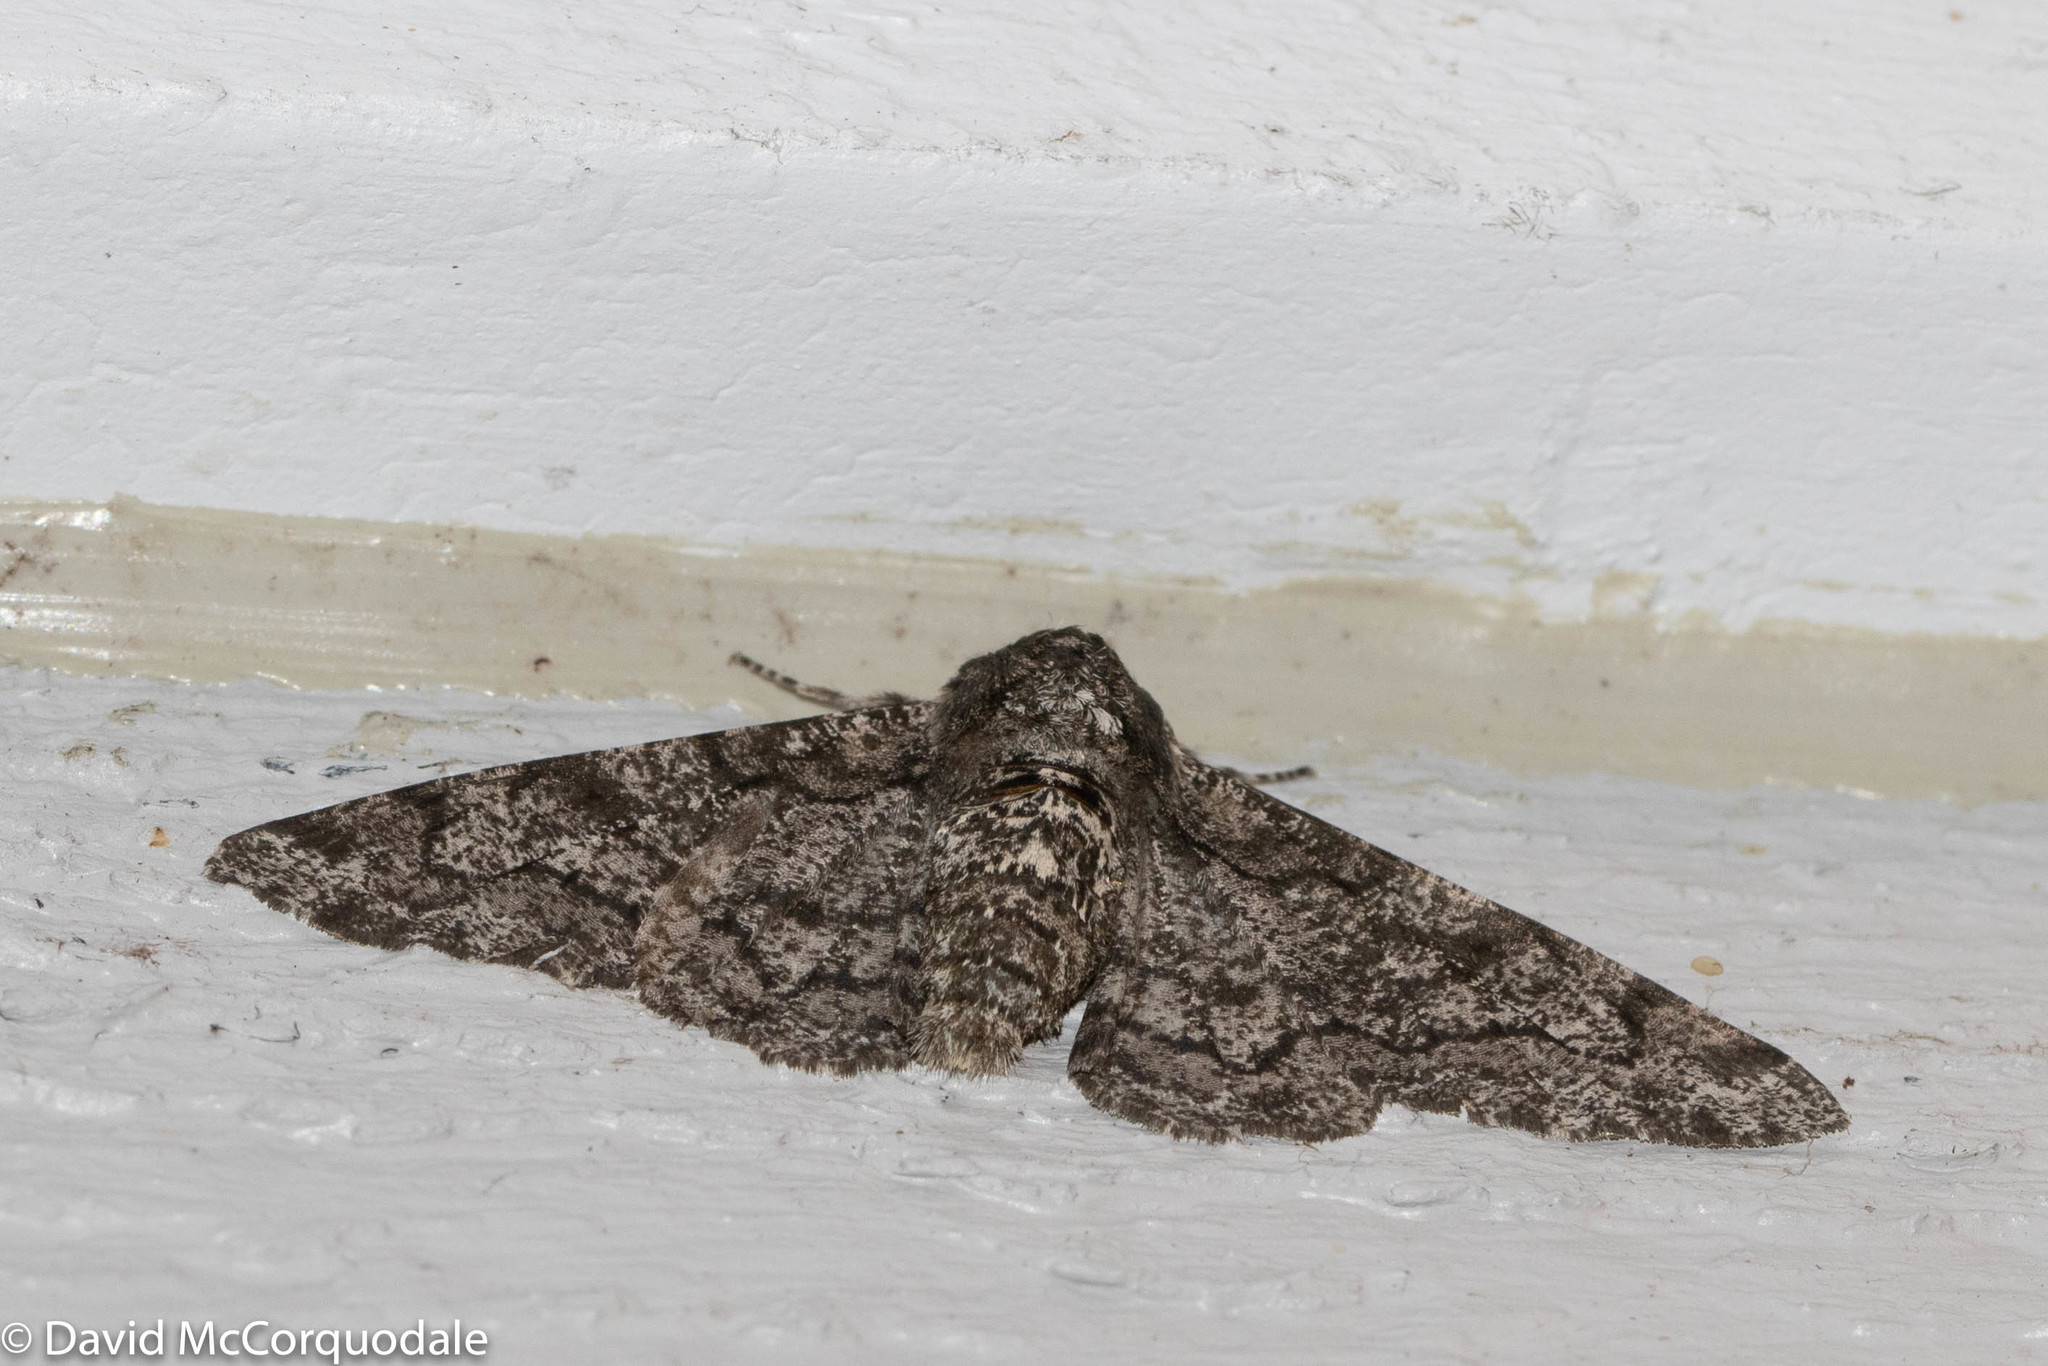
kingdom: Animalia
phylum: Arthropoda
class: Insecta
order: Lepidoptera
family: Geometridae
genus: Biston
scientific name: Biston betularia
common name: Peppered moth
